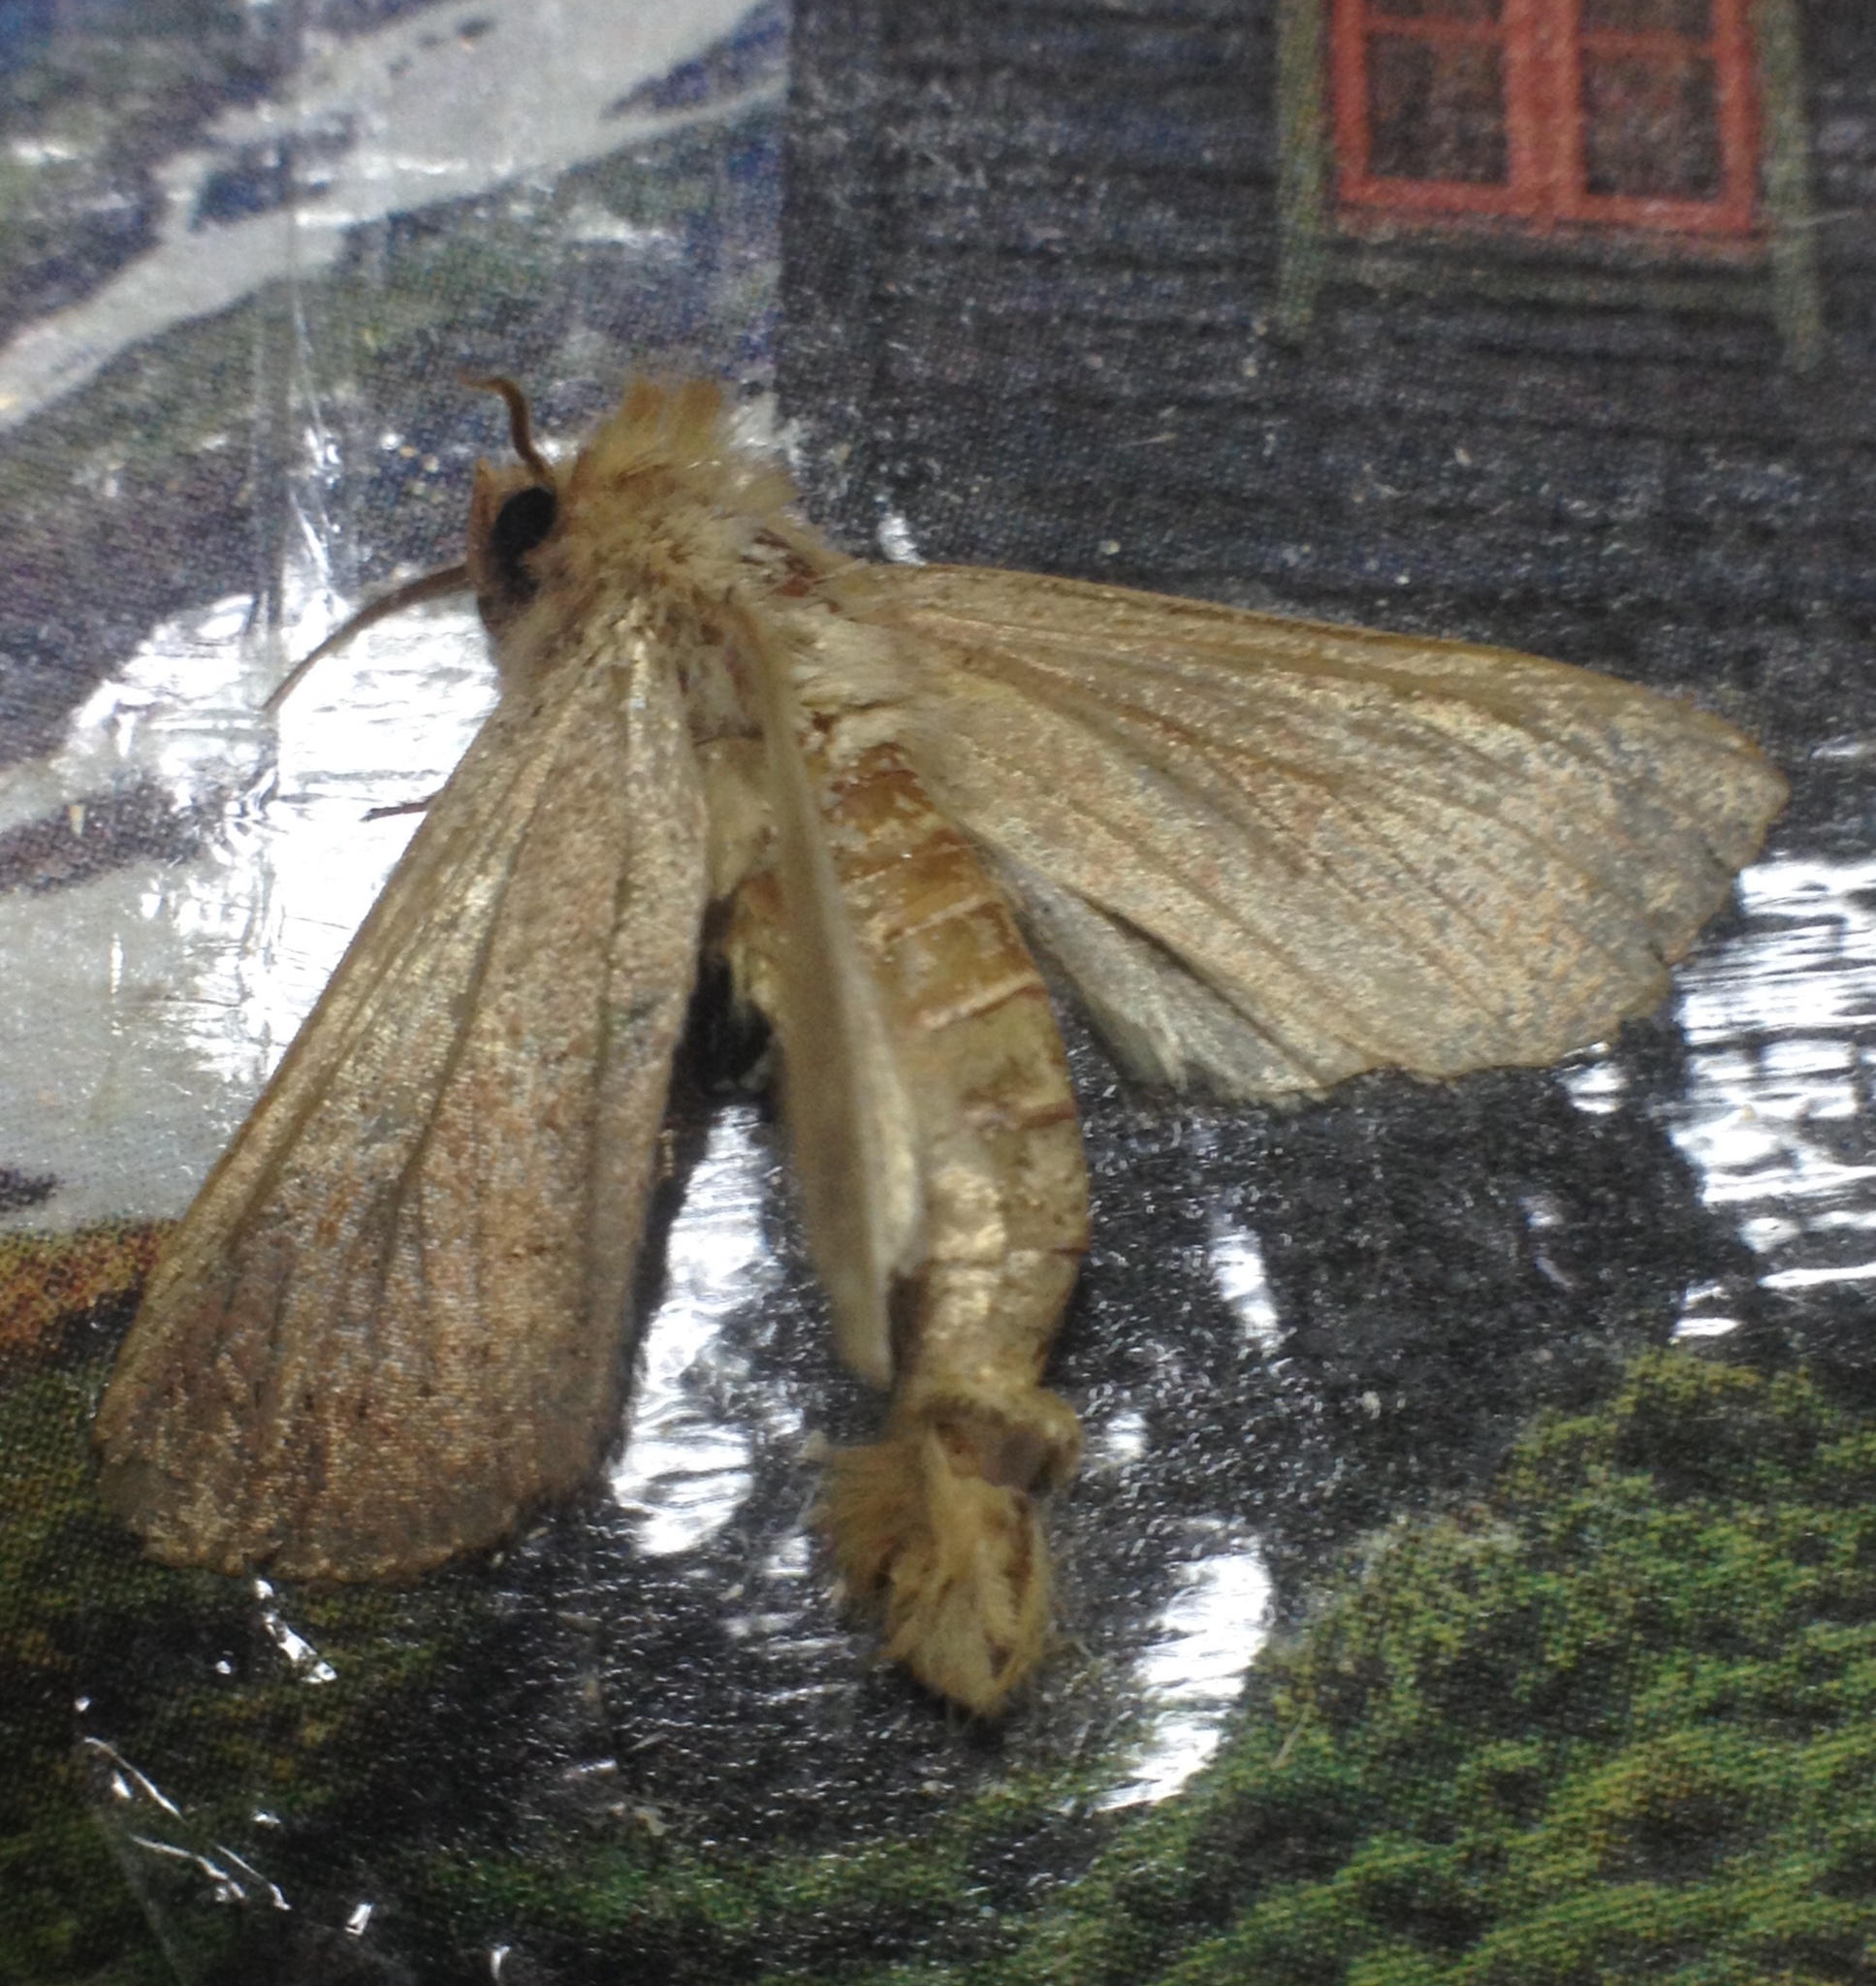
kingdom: Animalia
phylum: Arthropoda
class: Insecta
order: Lepidoptera
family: Noctuidae
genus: Mythimna
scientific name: Mythimna ferrago
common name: Clay
